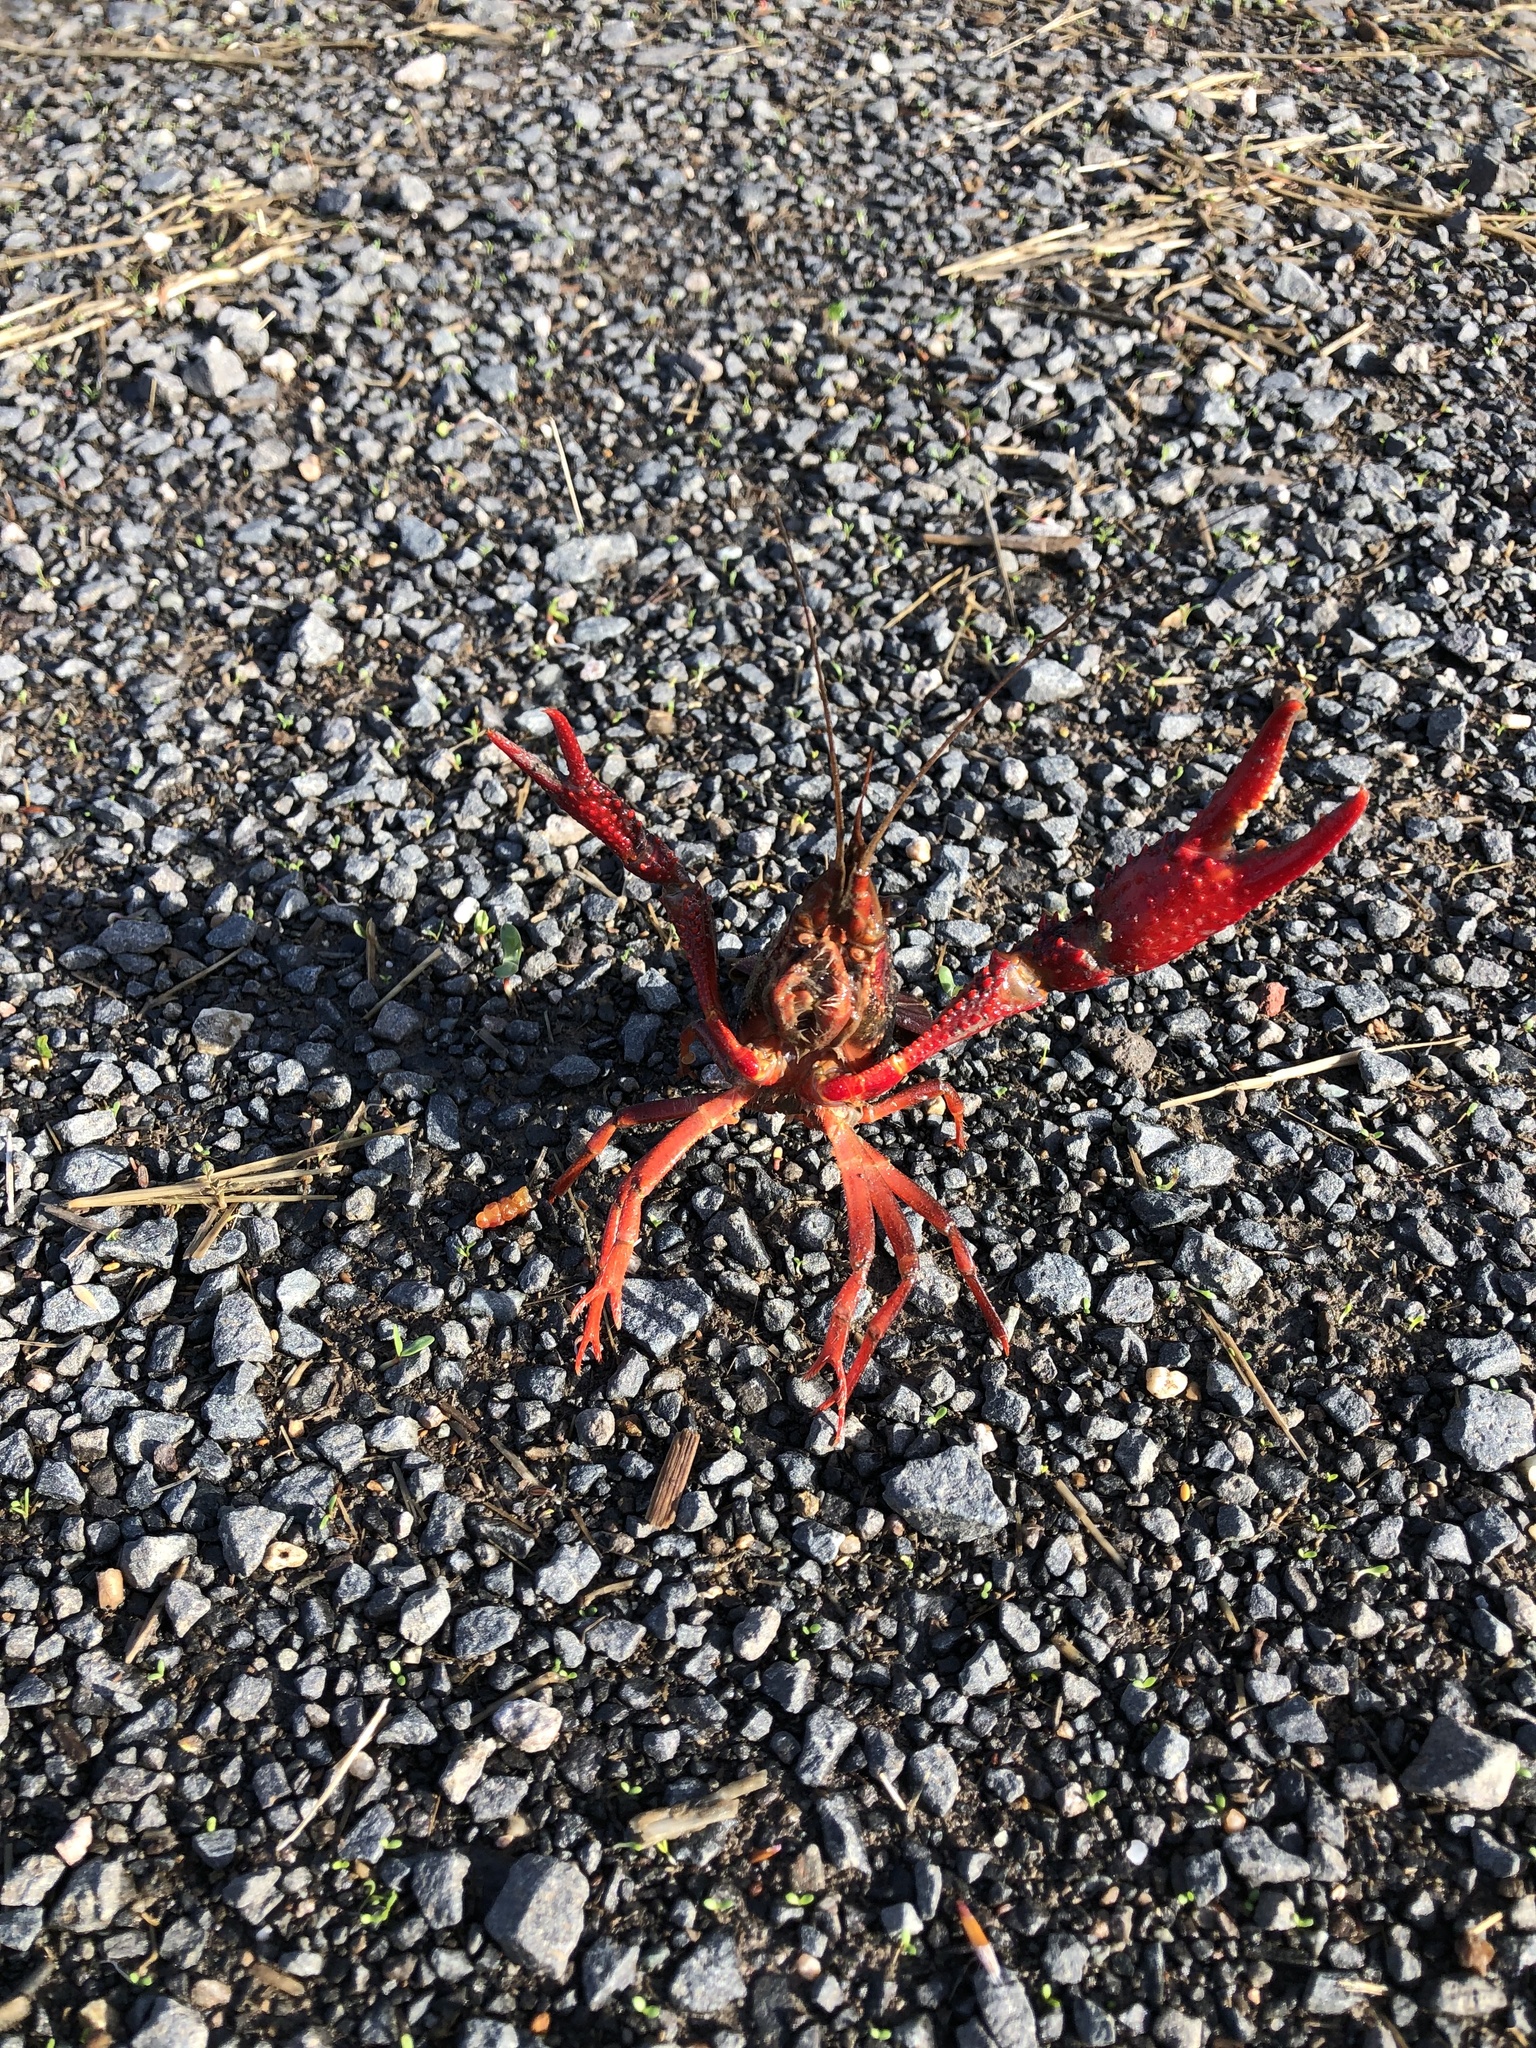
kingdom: Animalia
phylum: Arthropoda
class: Malacostraca
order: Decapoda
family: Cambaridae
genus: Procambarus
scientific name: Procambarus clarkii
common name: Red swamp crayfish
